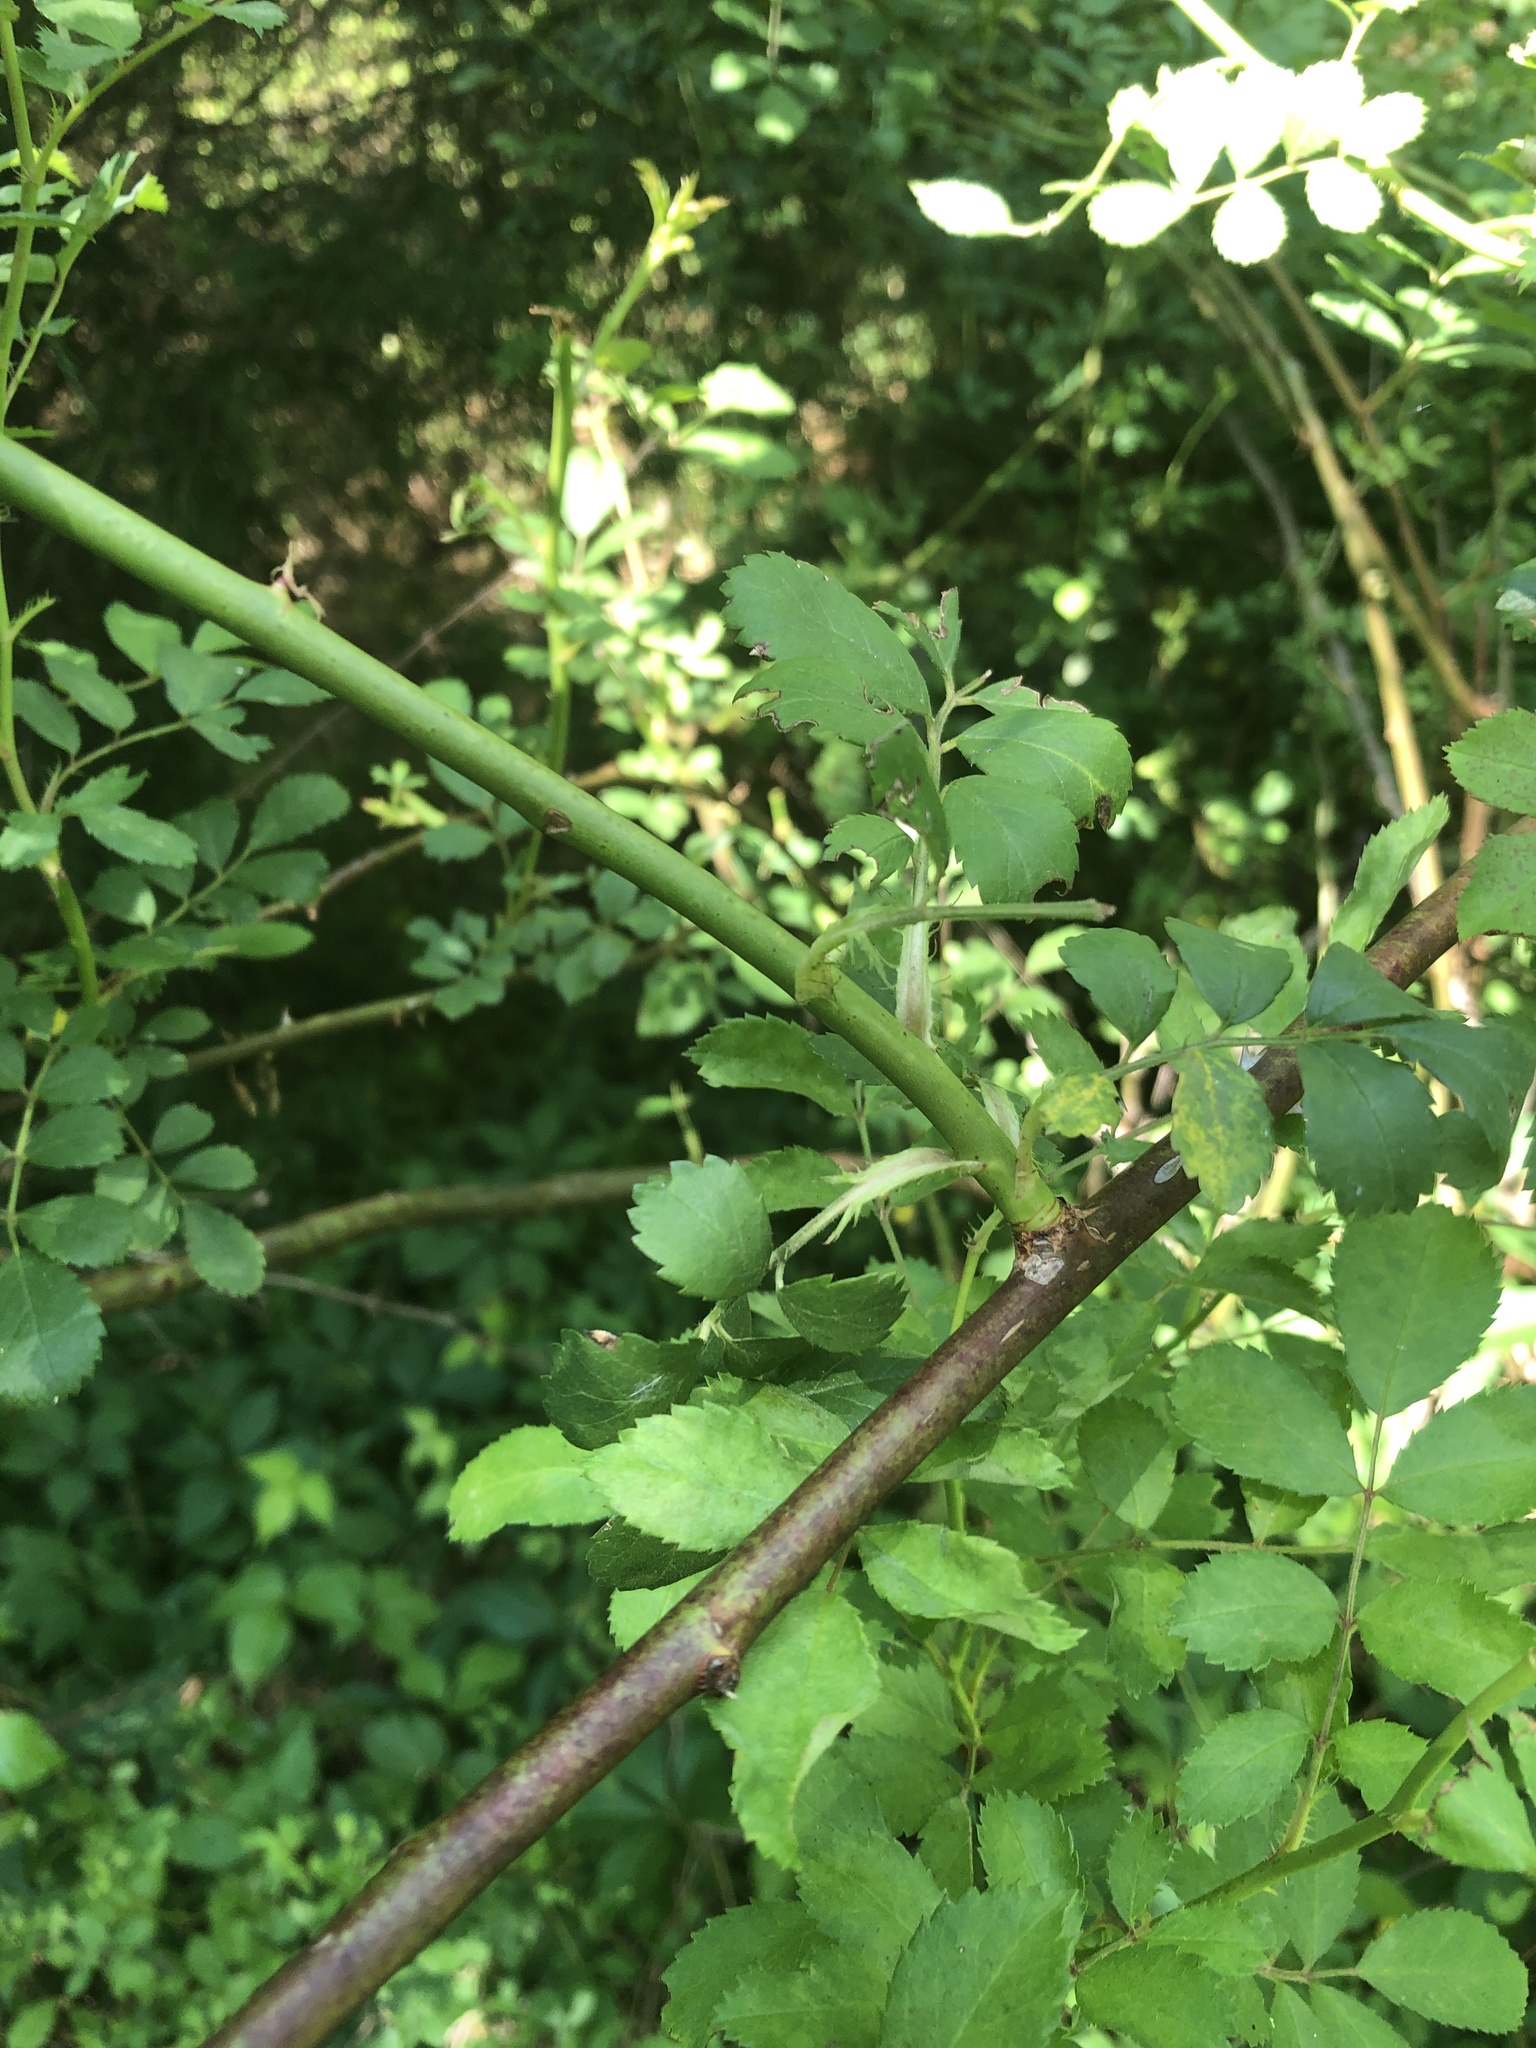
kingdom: Plantae
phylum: Tracheophyta
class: Magnoliopsida
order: Rosales
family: Rosaceae
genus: Rosa
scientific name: Rosa multiflora
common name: Multiflora rose
